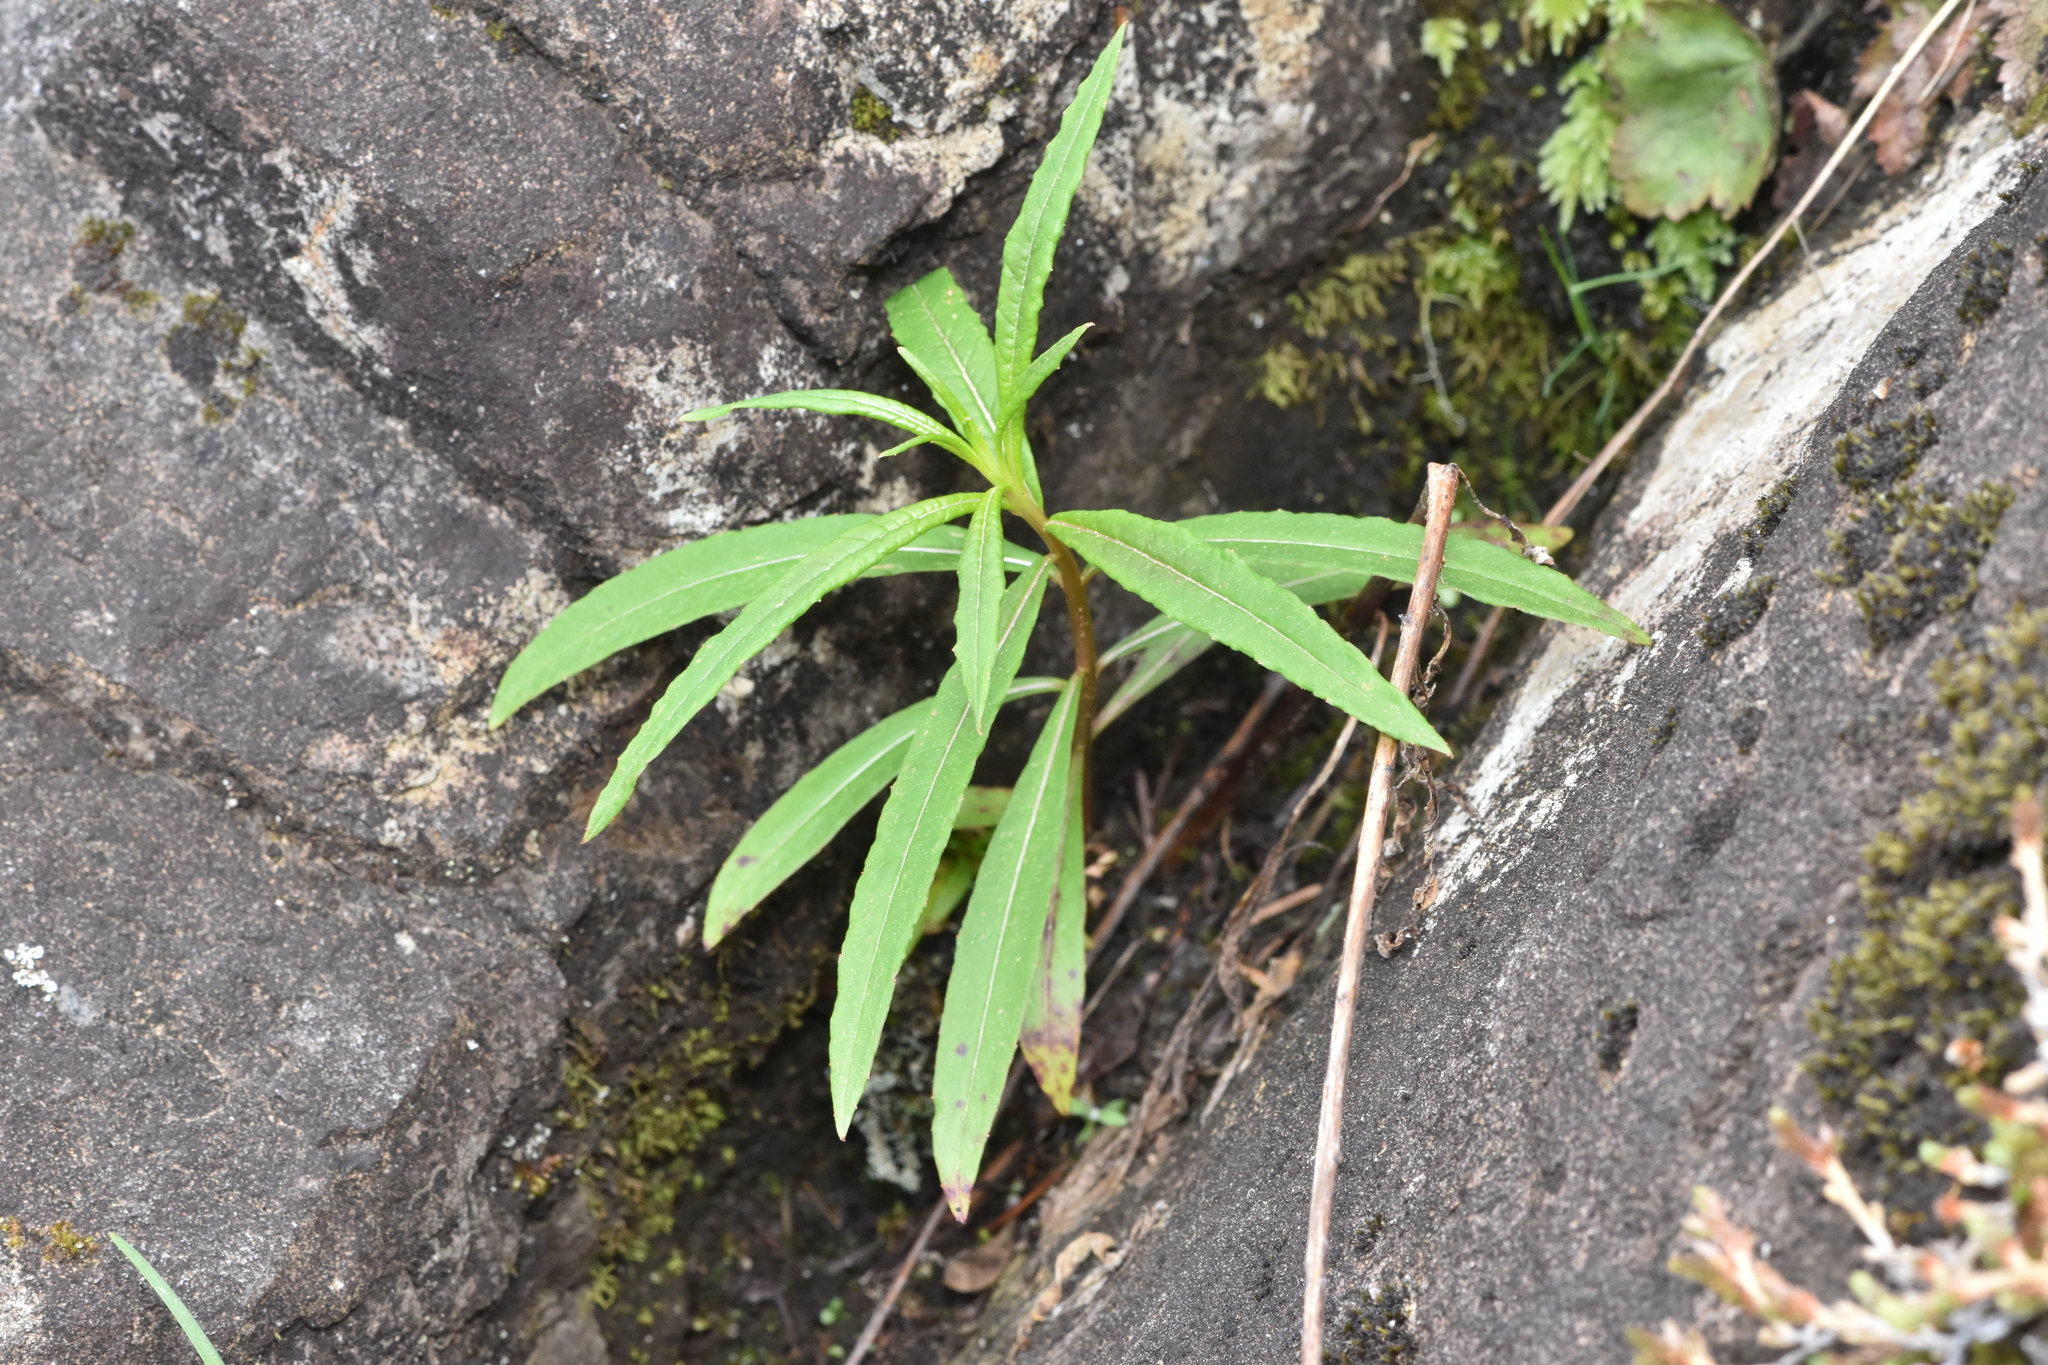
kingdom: Plantae
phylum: Tracheophyta
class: Magnoliopsida
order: Myrtales
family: Onagraceae
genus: Chamaenerion
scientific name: Chamaenerion angustifolium
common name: Fireweed
